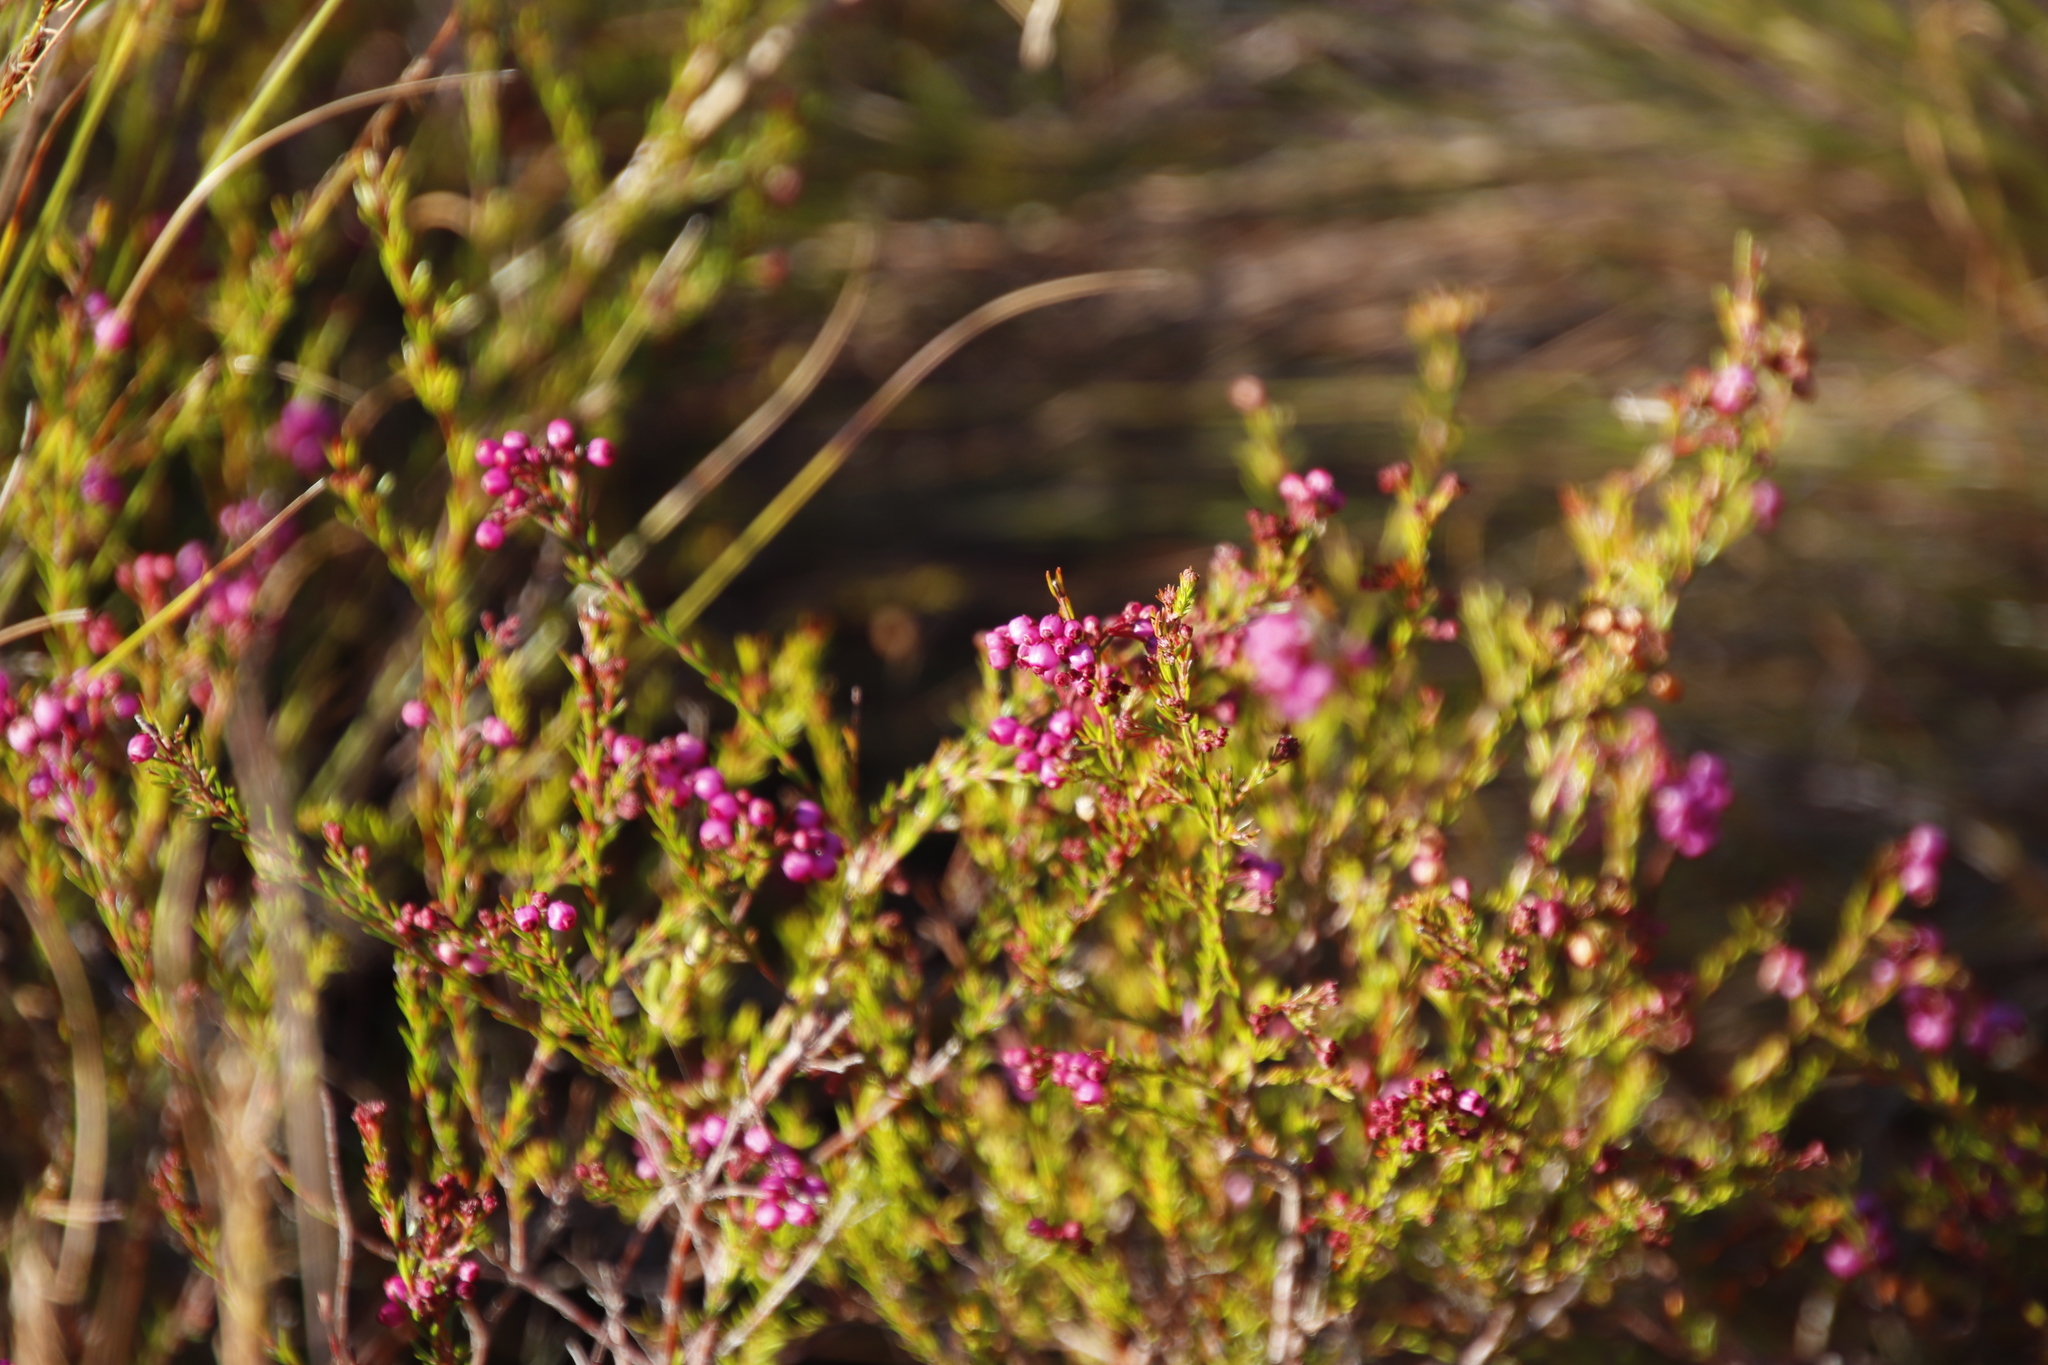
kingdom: Plantae
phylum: Tracheophyta
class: Magnoliopsida
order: Ericales
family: Ericaceae
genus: Erica
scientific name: Erica multumbellifera
